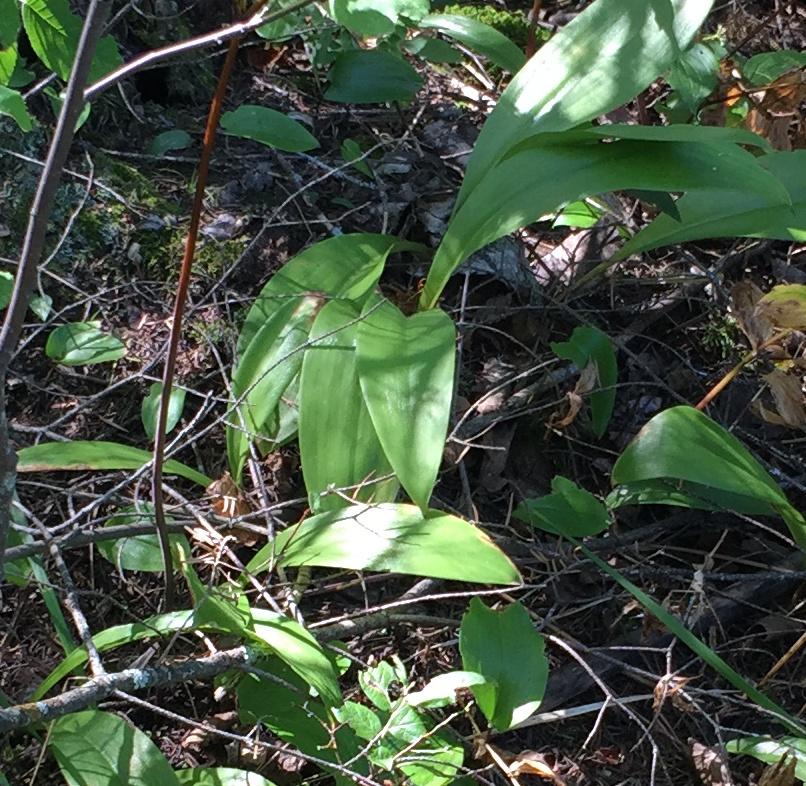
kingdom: Plantae
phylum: Tracheophyta
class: Liliopsida
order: Liliales
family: Liliaceae
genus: Clintonia
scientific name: Clintonia borealis
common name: Yellow clintonia
